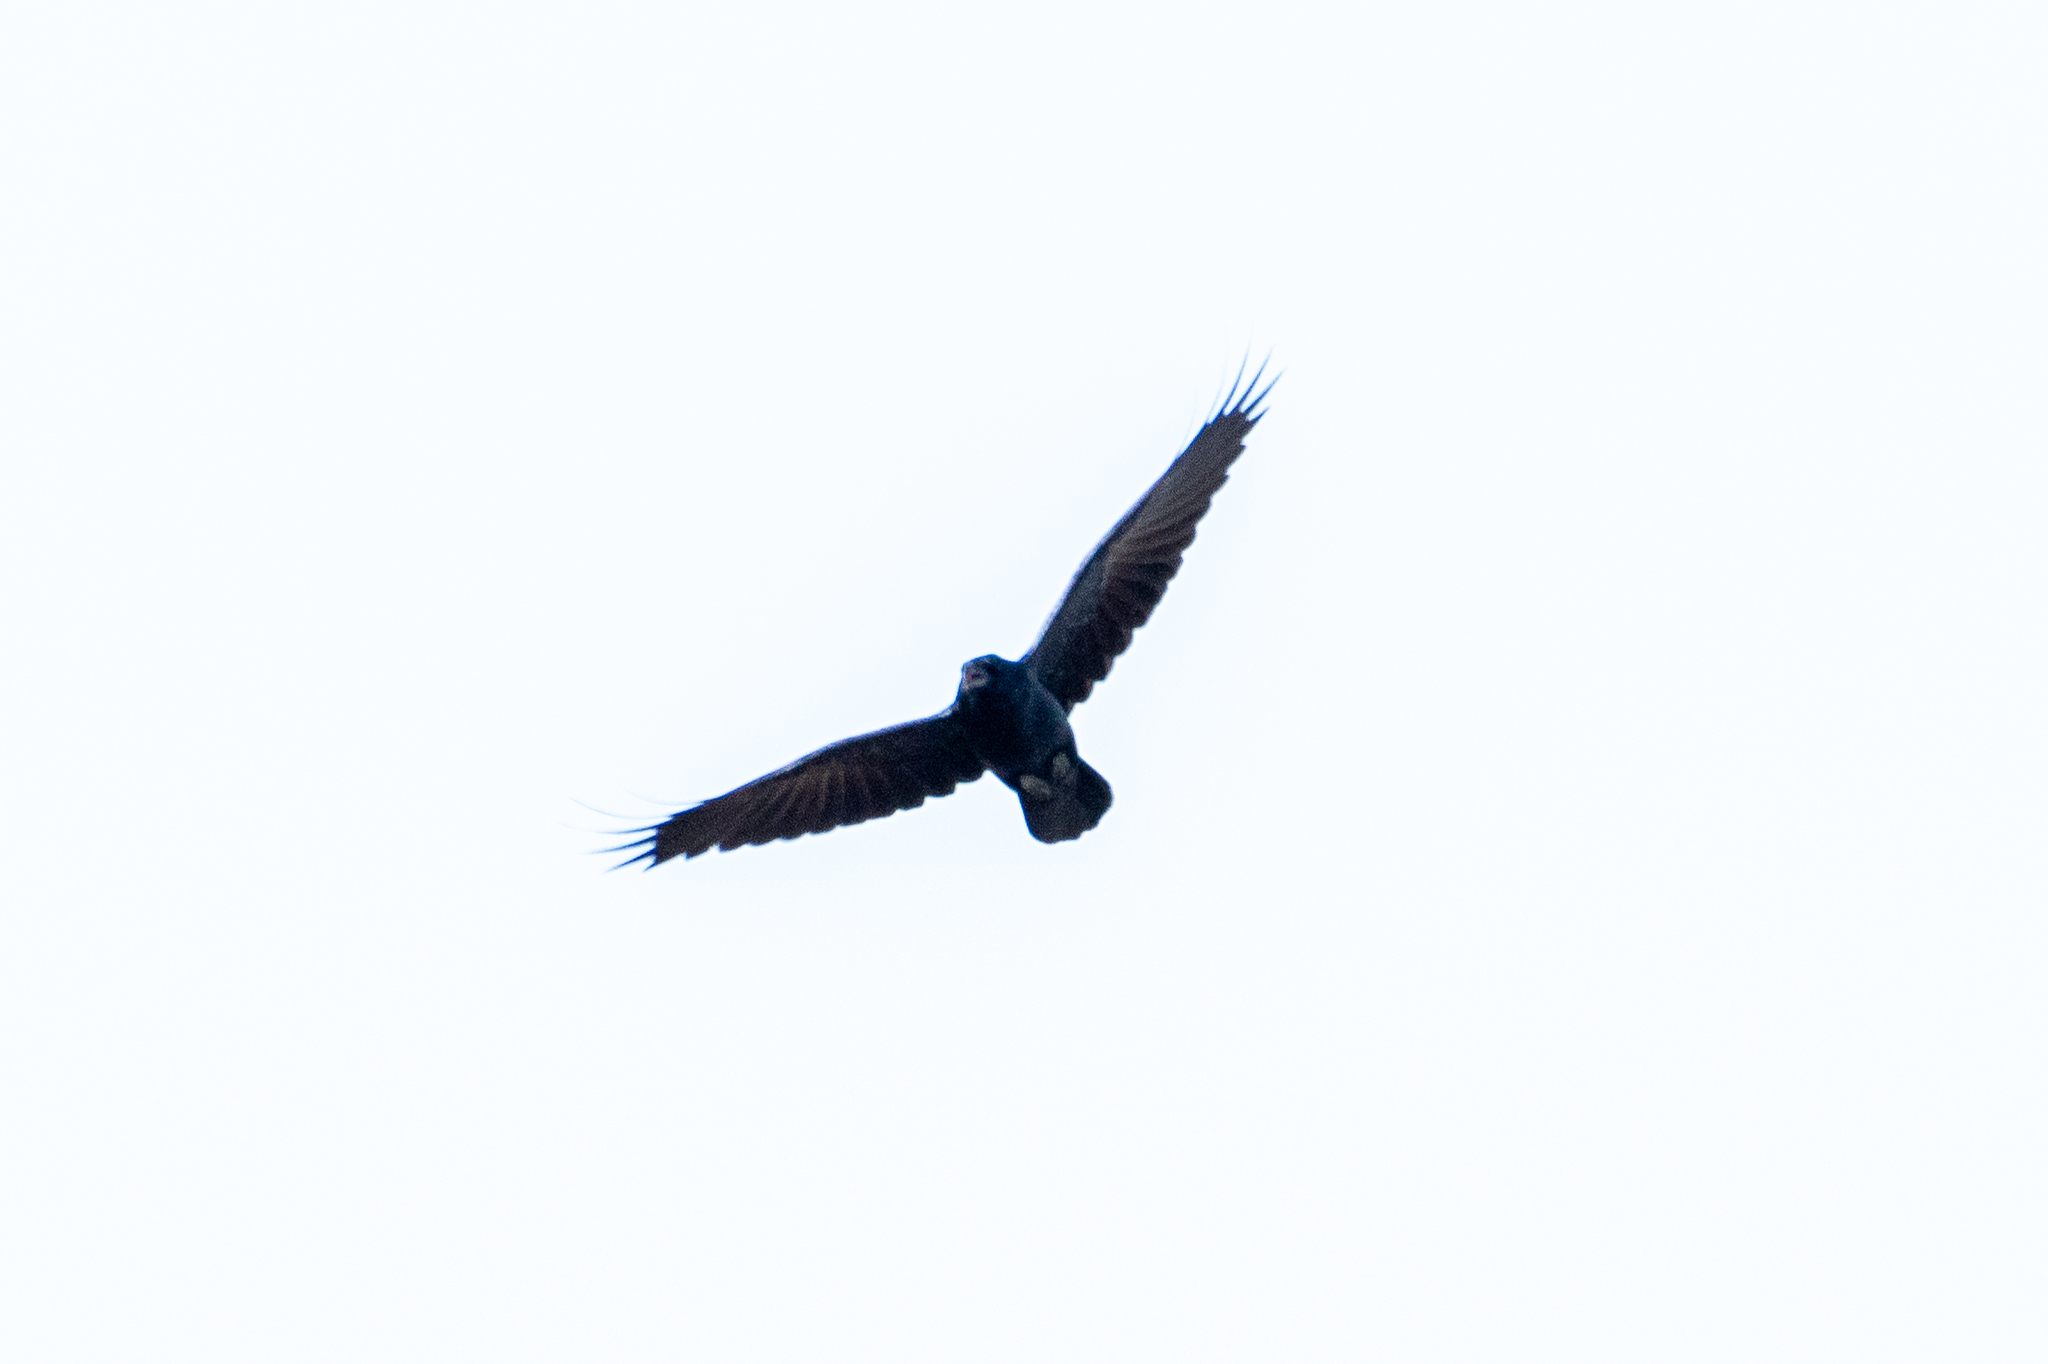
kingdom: Animalia
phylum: Chordata
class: Aves
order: Passeriformes
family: Corvidae
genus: Corvus
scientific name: Corvus corax
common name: Common raven
